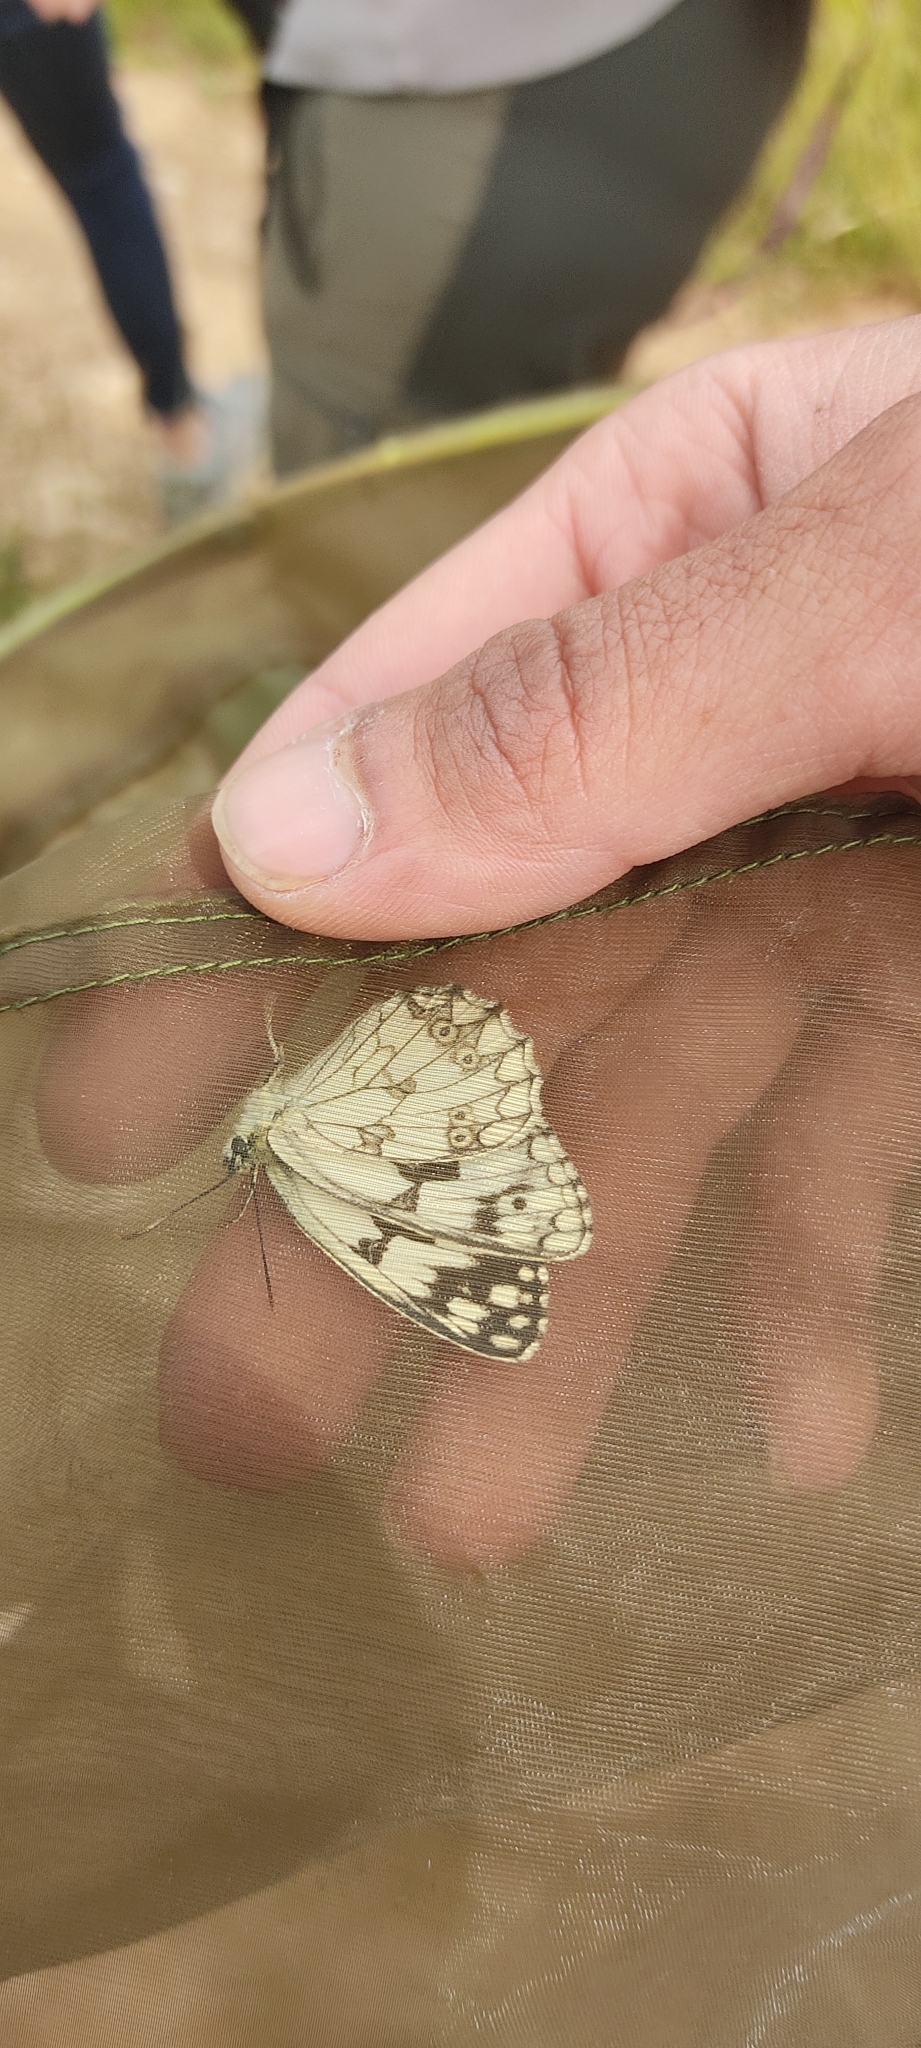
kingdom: Animalia
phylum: Arthropoda
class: Insecta
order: Lepidoptera
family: Nymphalidae
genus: Melanargia
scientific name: Melanargia lachesis
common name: Iberian marbled white
